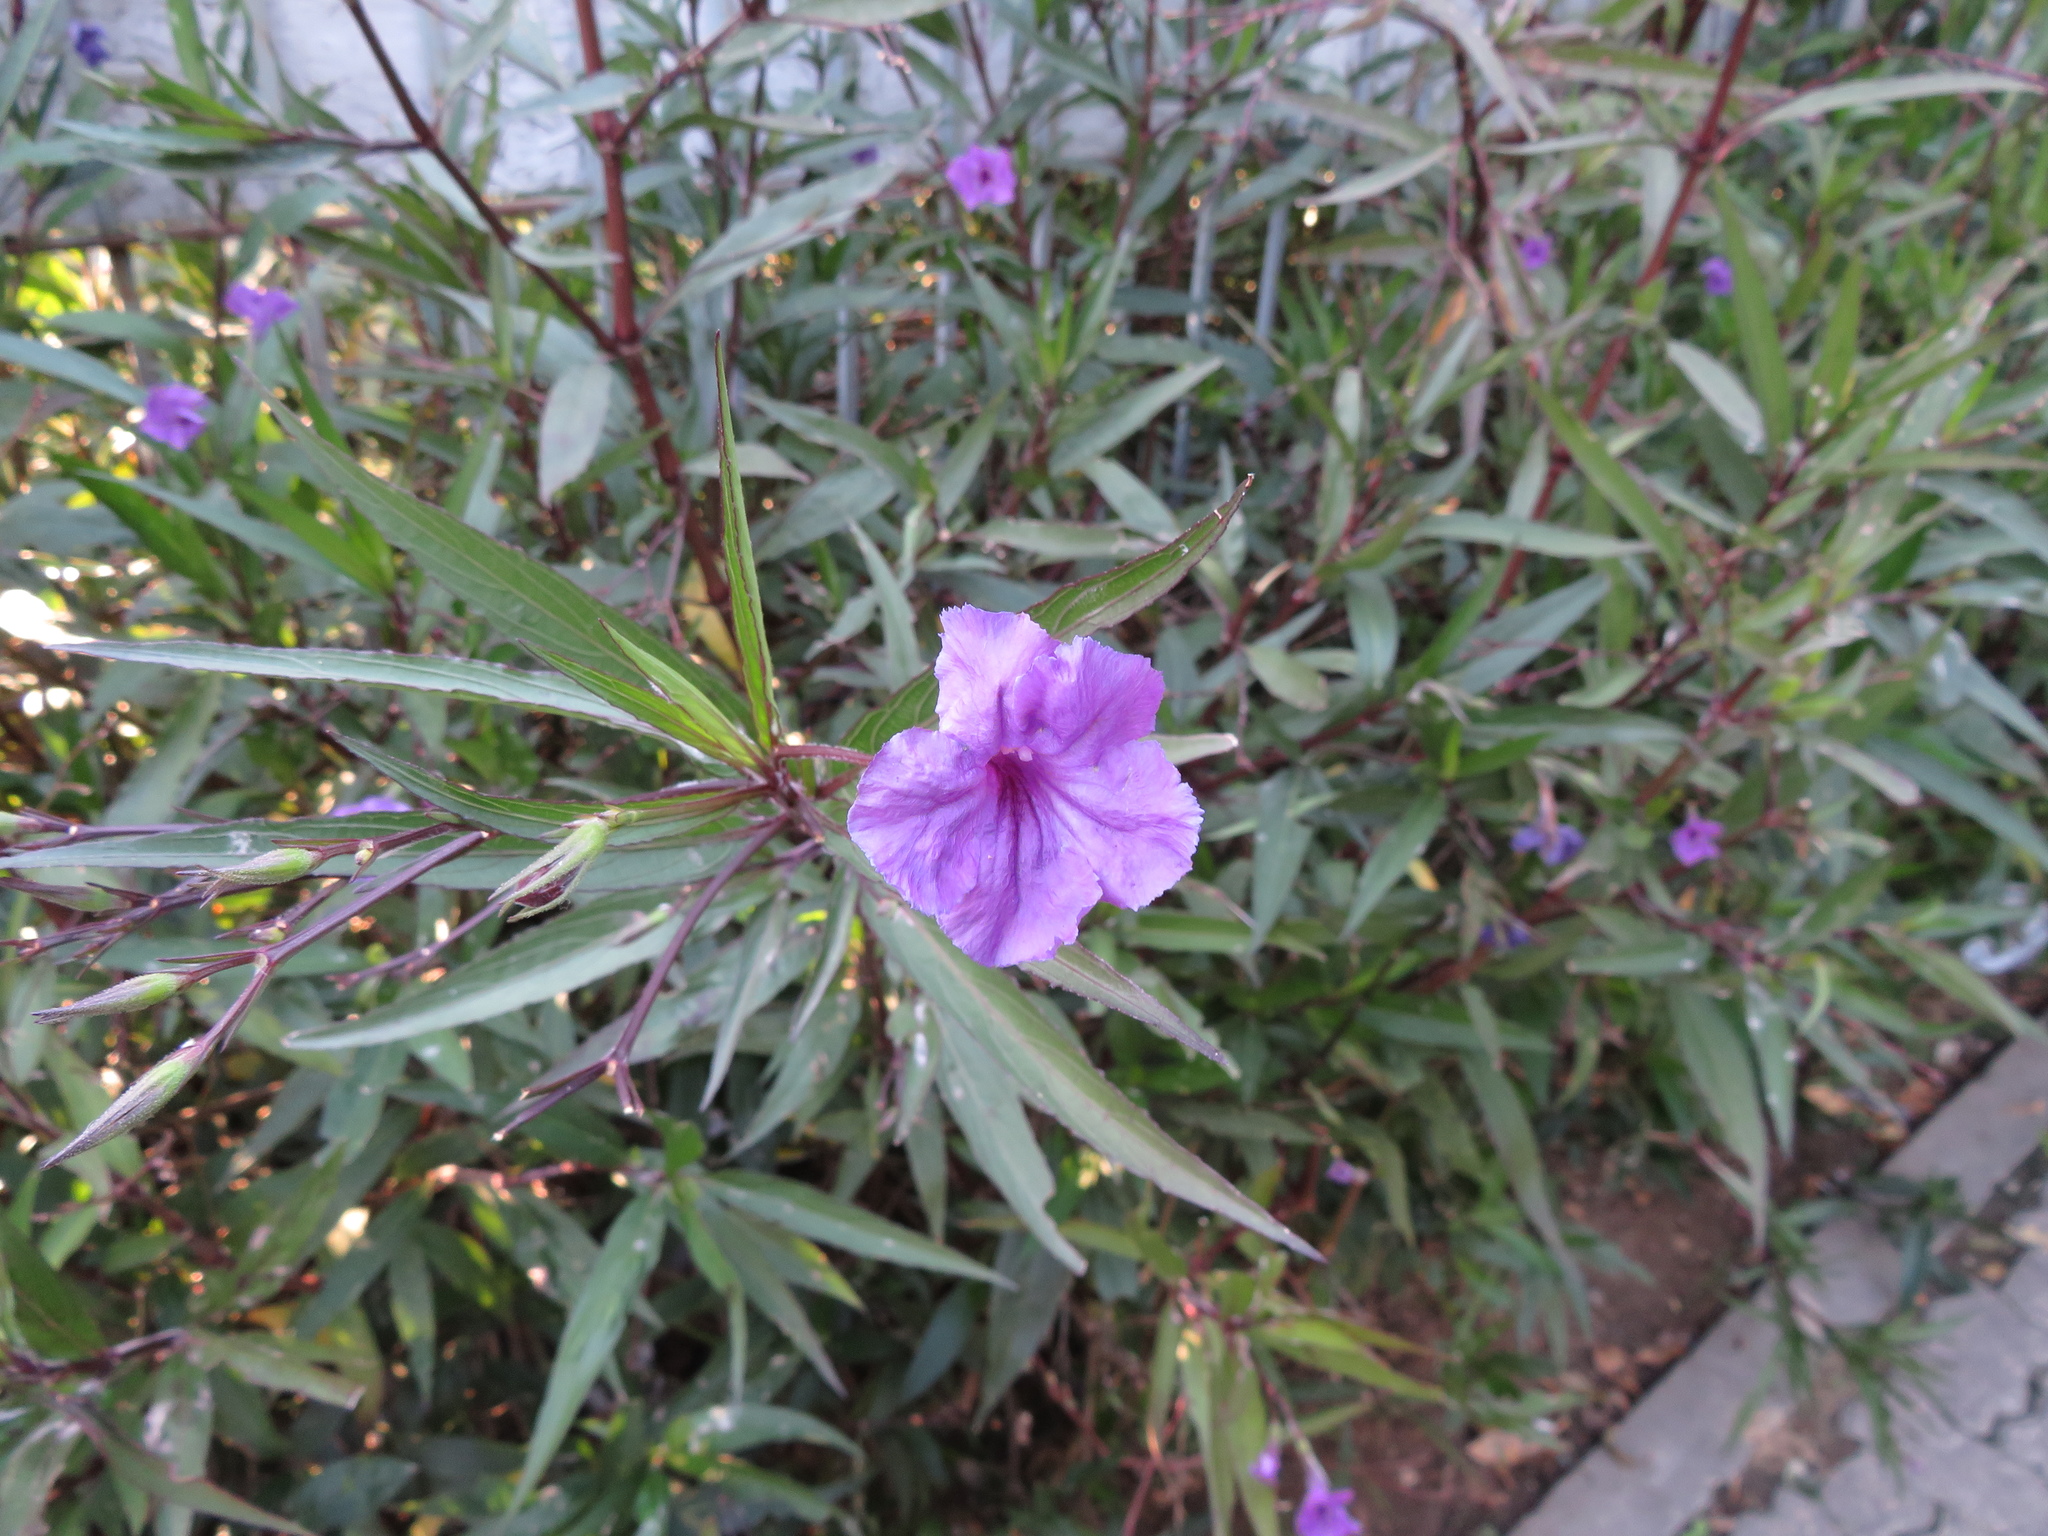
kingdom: Plantae
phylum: Tracheophyta
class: Magnoliopsida
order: Lamiales
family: Acanthaceae
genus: Ruellia
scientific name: Ruellia simplex
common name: Softseed wild petunia
